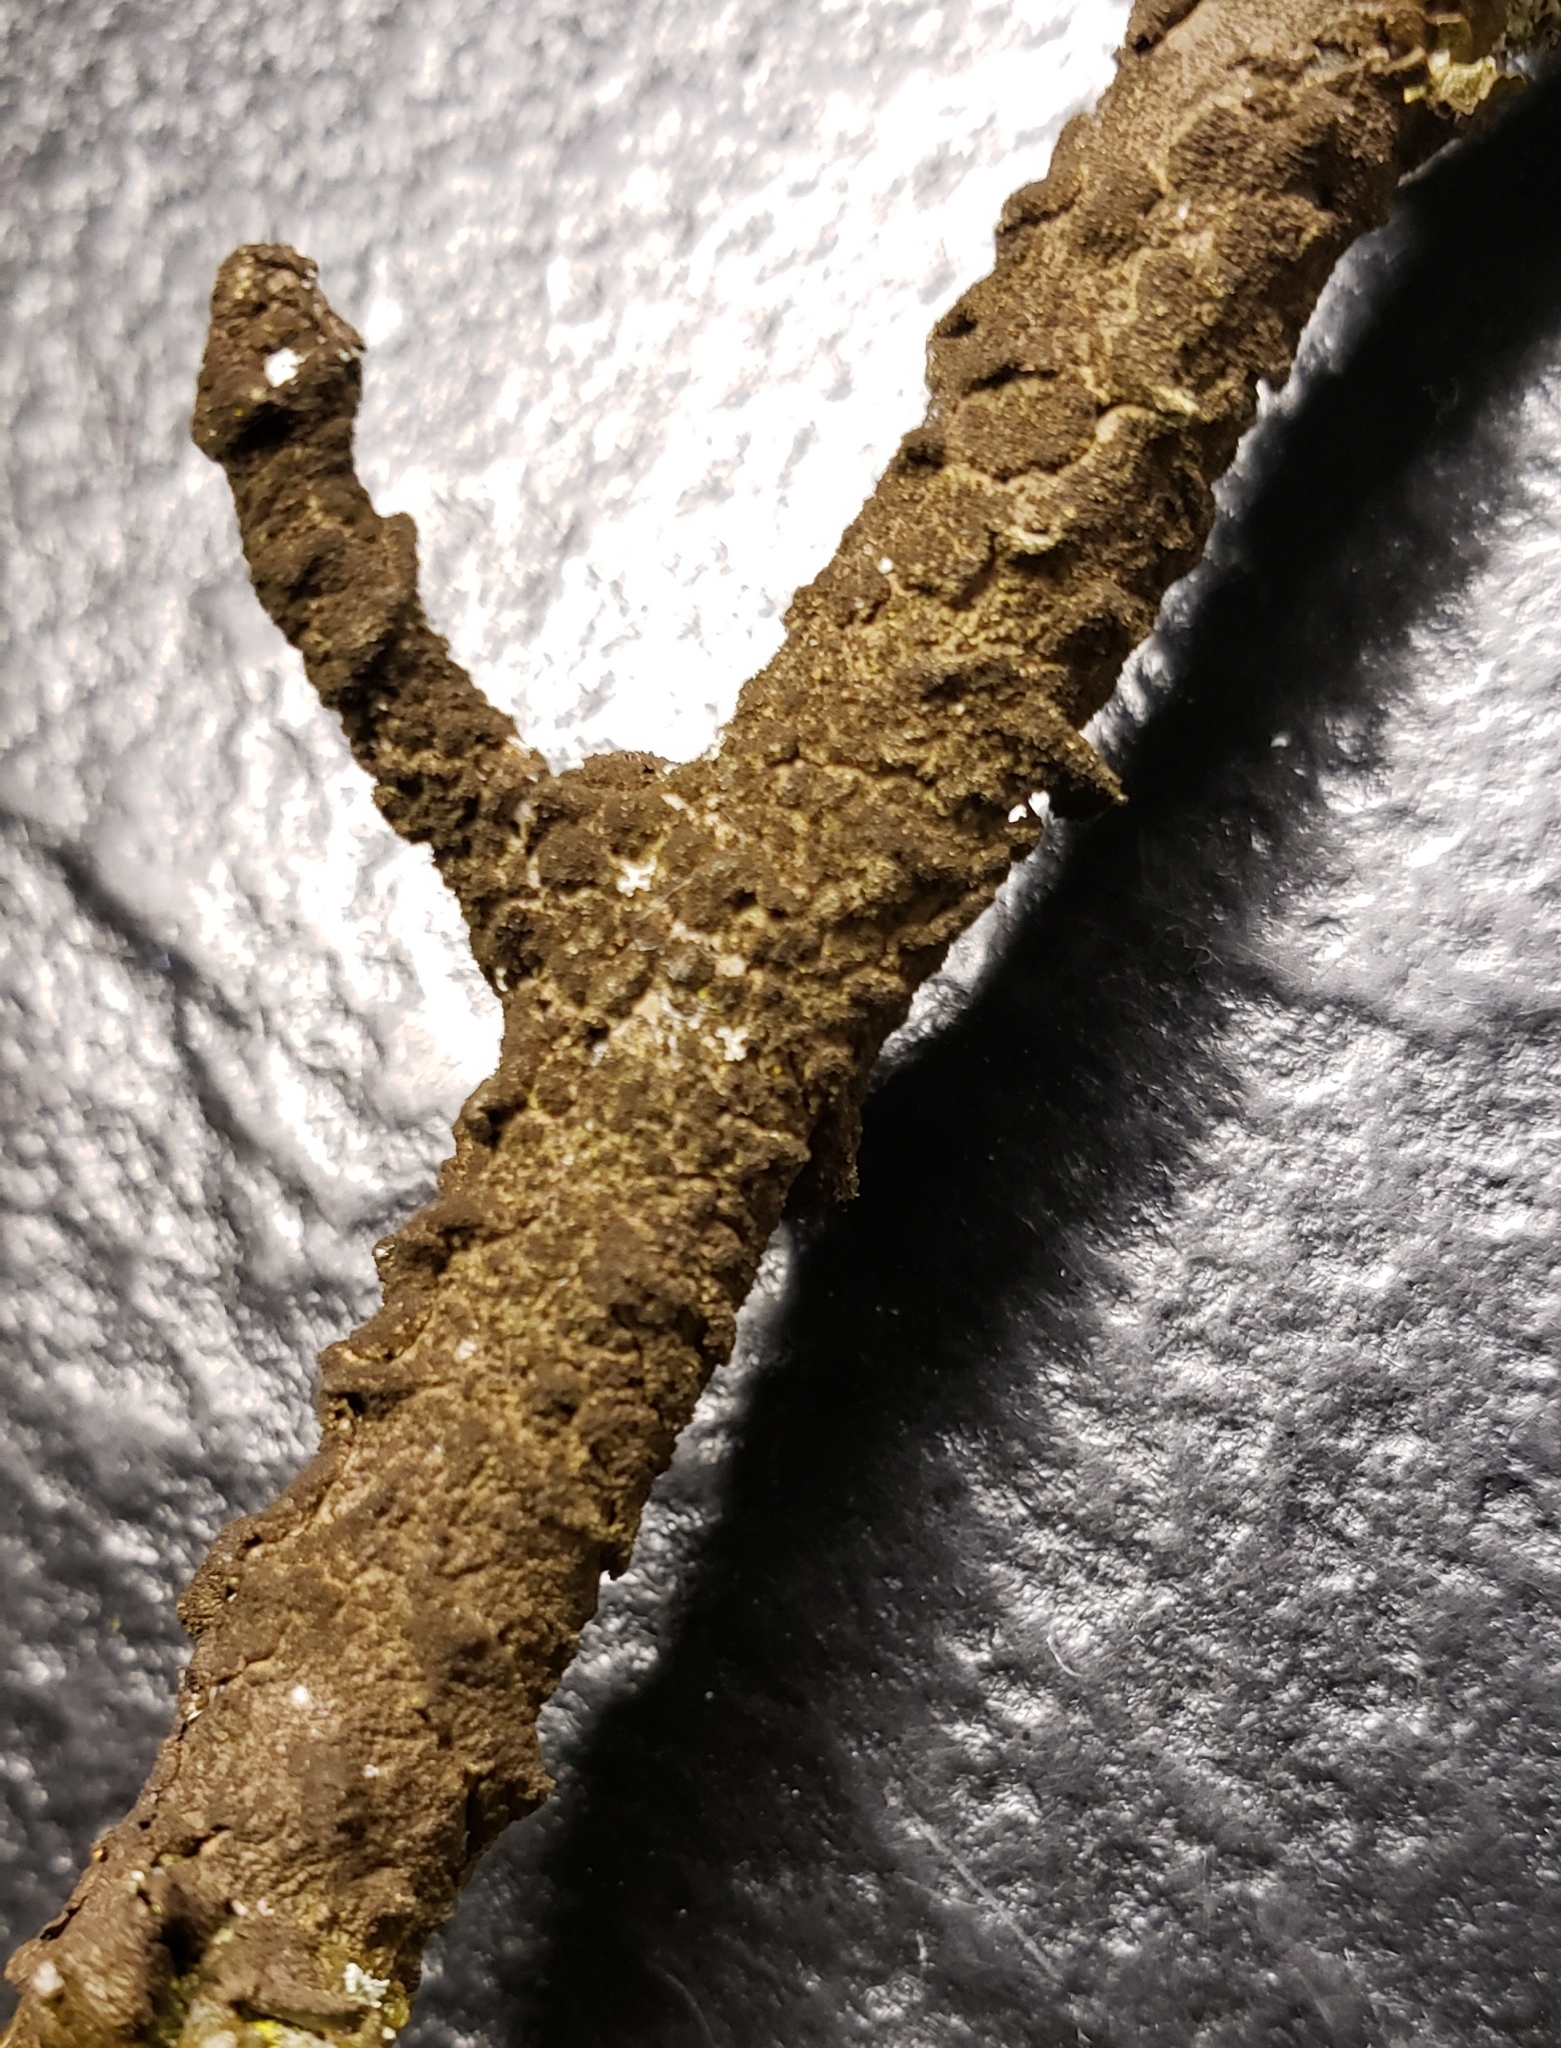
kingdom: Fungi
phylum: Ascomycota
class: Lecanoromycetes
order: Lecanorales
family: Parmeliaceae
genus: Melanelixia
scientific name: Melanelixia subaurifera
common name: Abraded camouflage lichen
